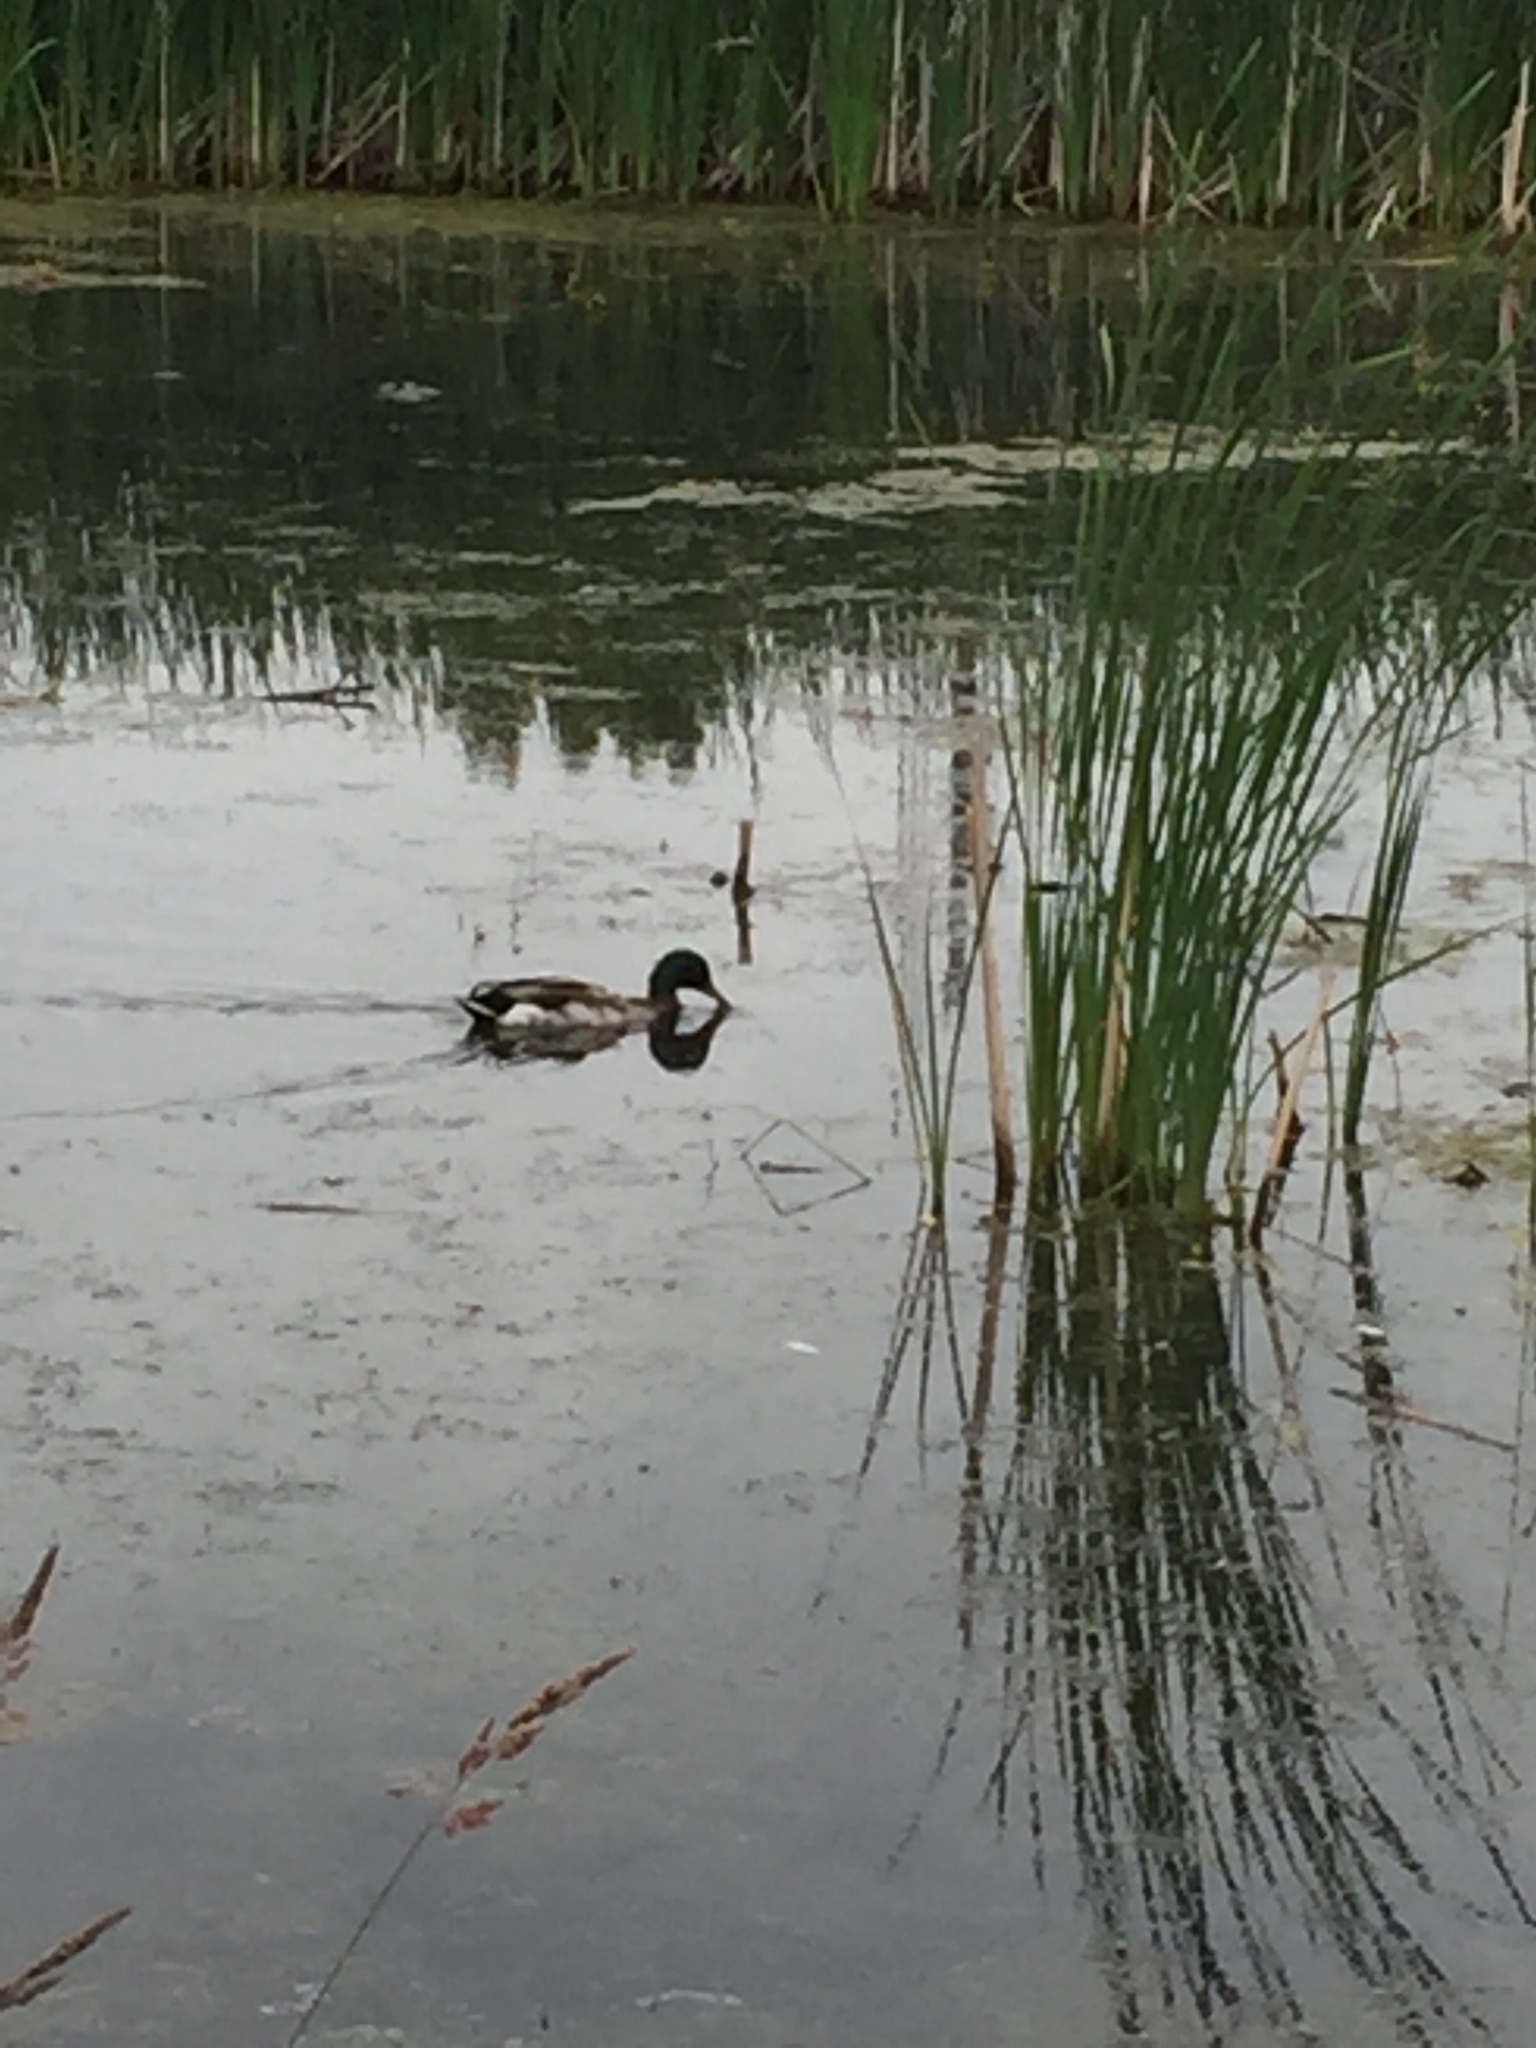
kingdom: Animalia
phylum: Chordata
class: Aves
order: Anseriformes
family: Anatidae
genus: Anas
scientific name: Anas platyrhynchos
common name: Mallard
